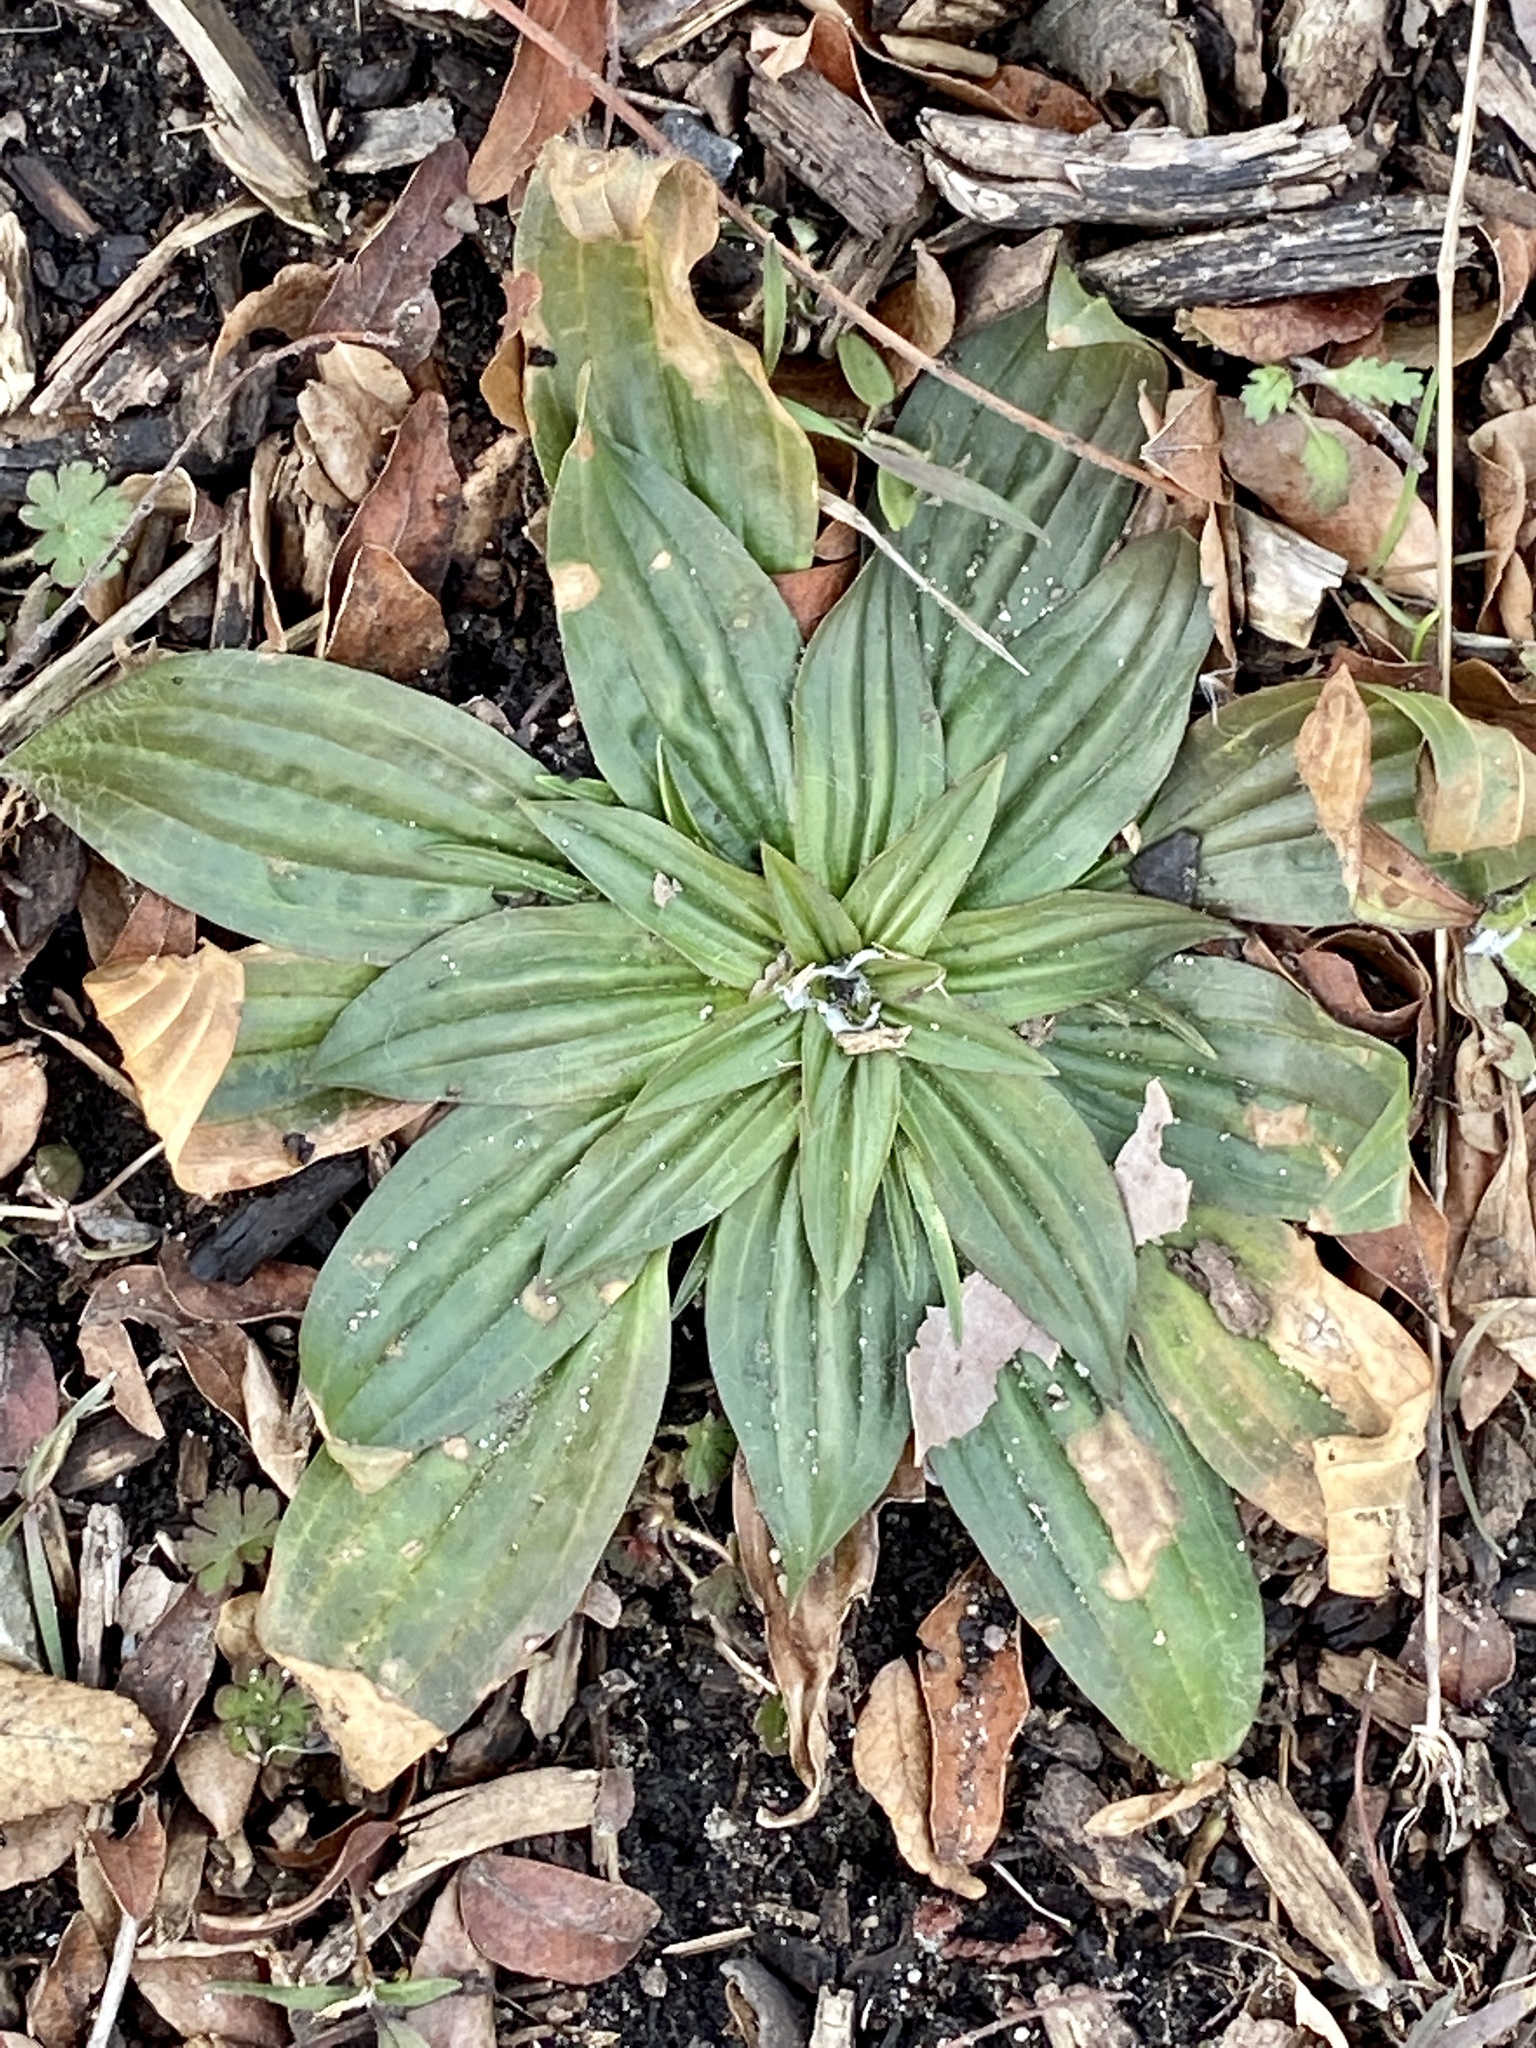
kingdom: Plantae
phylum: Tracheophyta
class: Magnoliopsida
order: Lamiales
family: Plantaginaceae
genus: Plantago
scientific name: Plantago lanceolata
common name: Ribwort plantain
